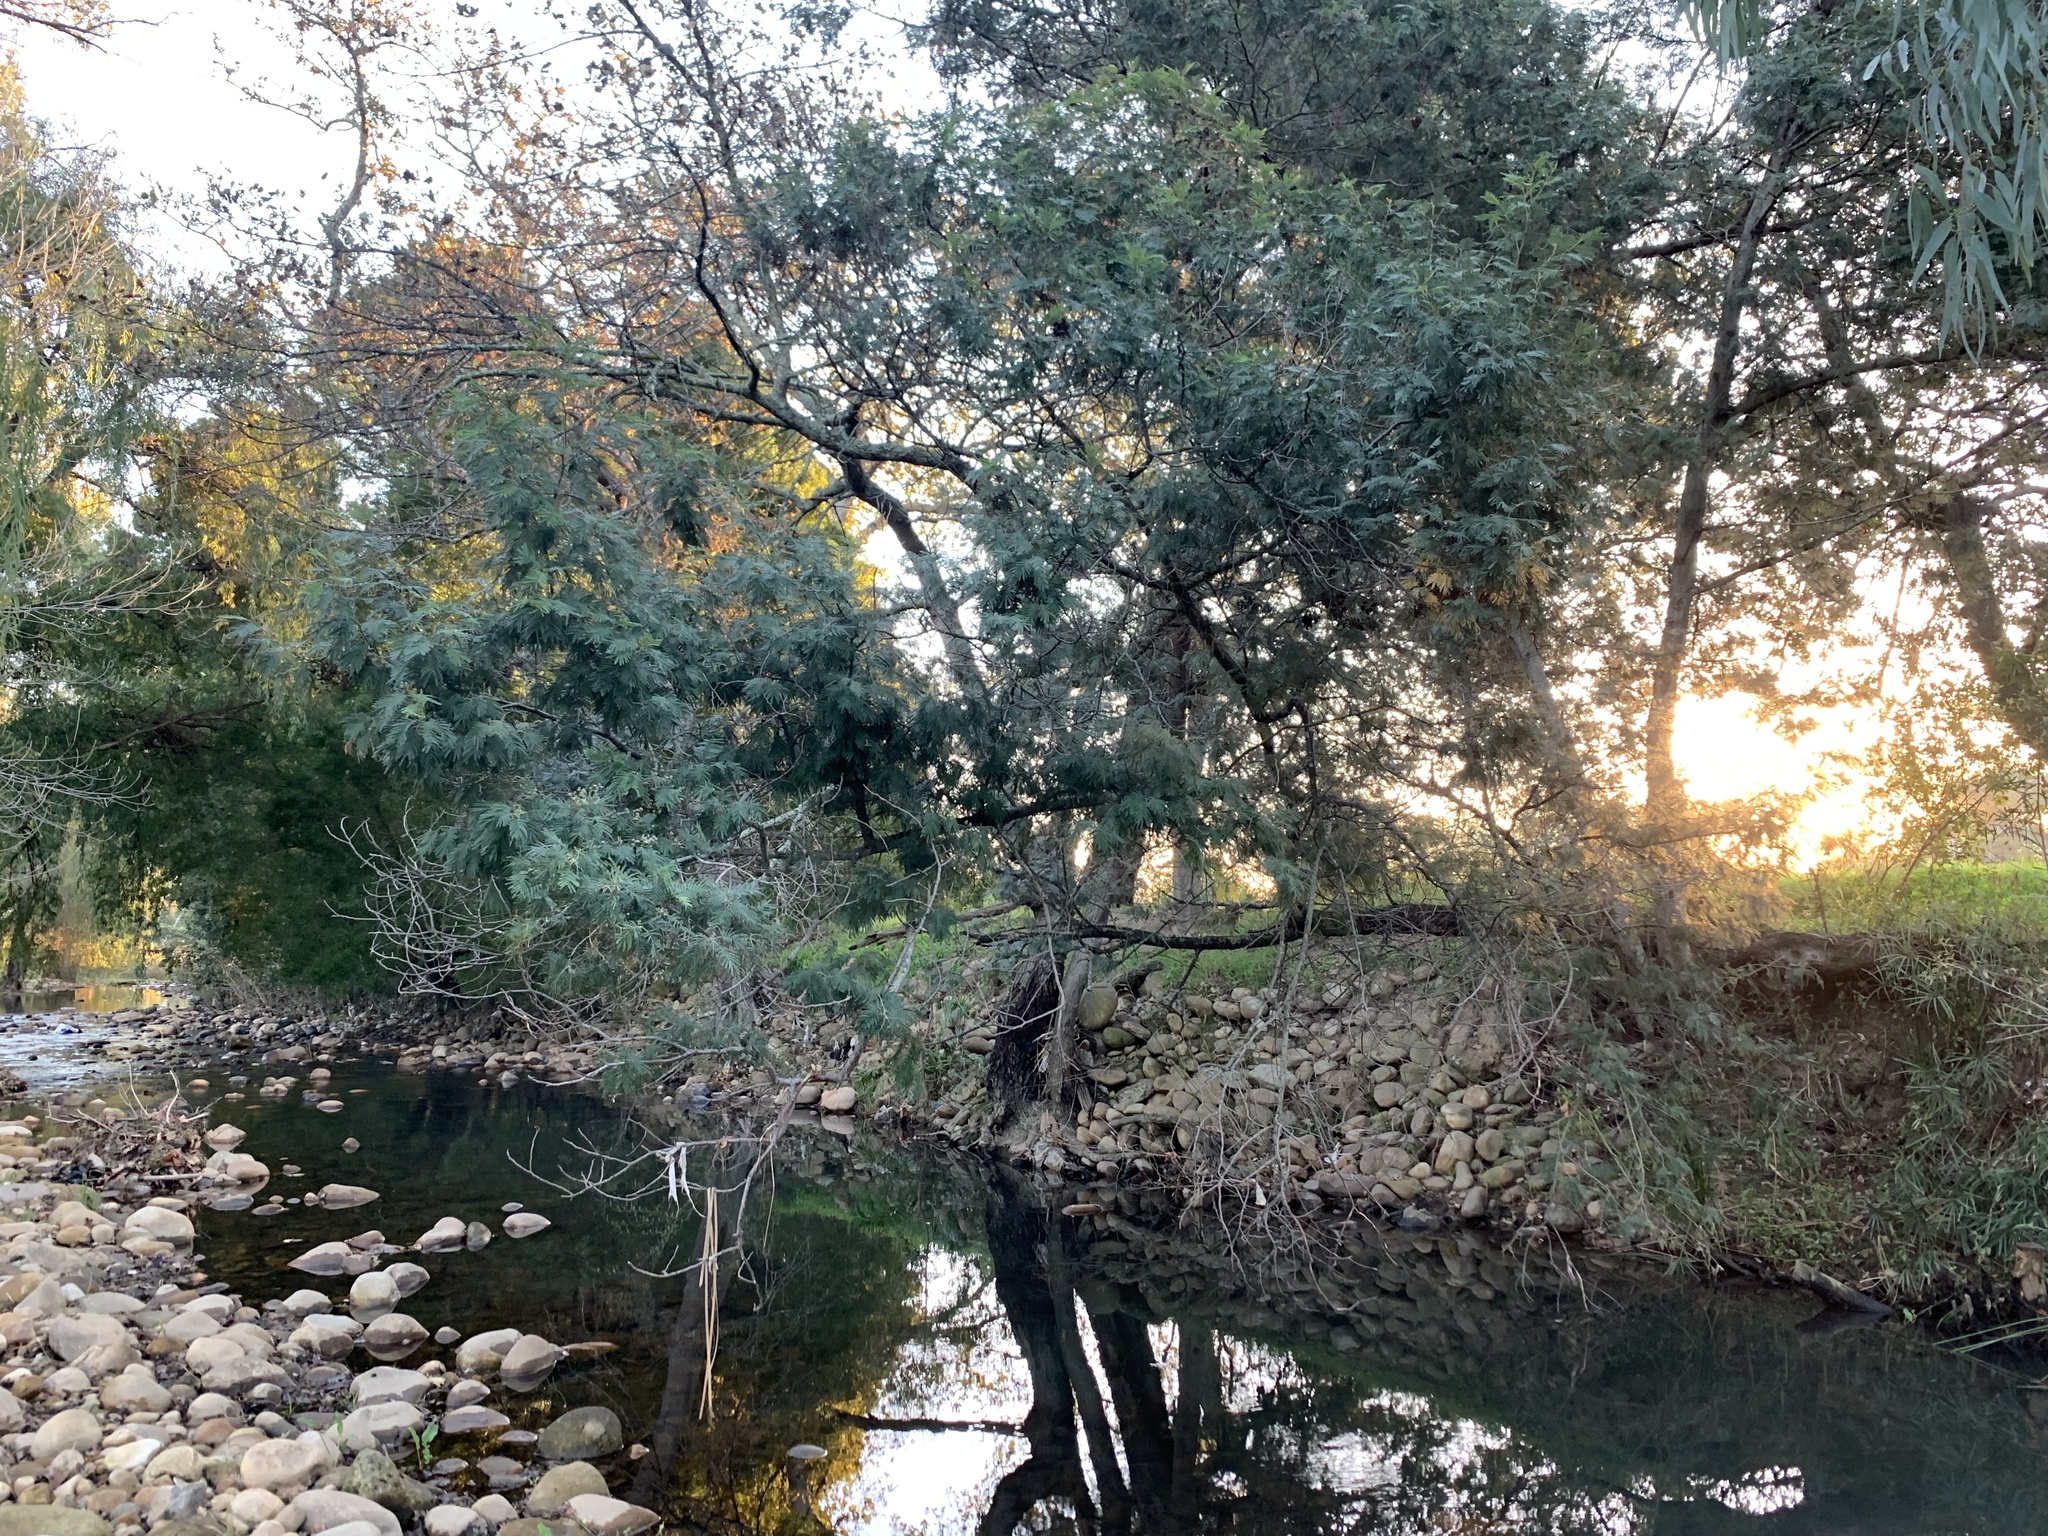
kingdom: Plantae
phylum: Tracheophyta
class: Magnoliopsida
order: Fabales
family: Fabaceae
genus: Acacia
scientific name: Acacia mearnsii
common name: Black wattle
